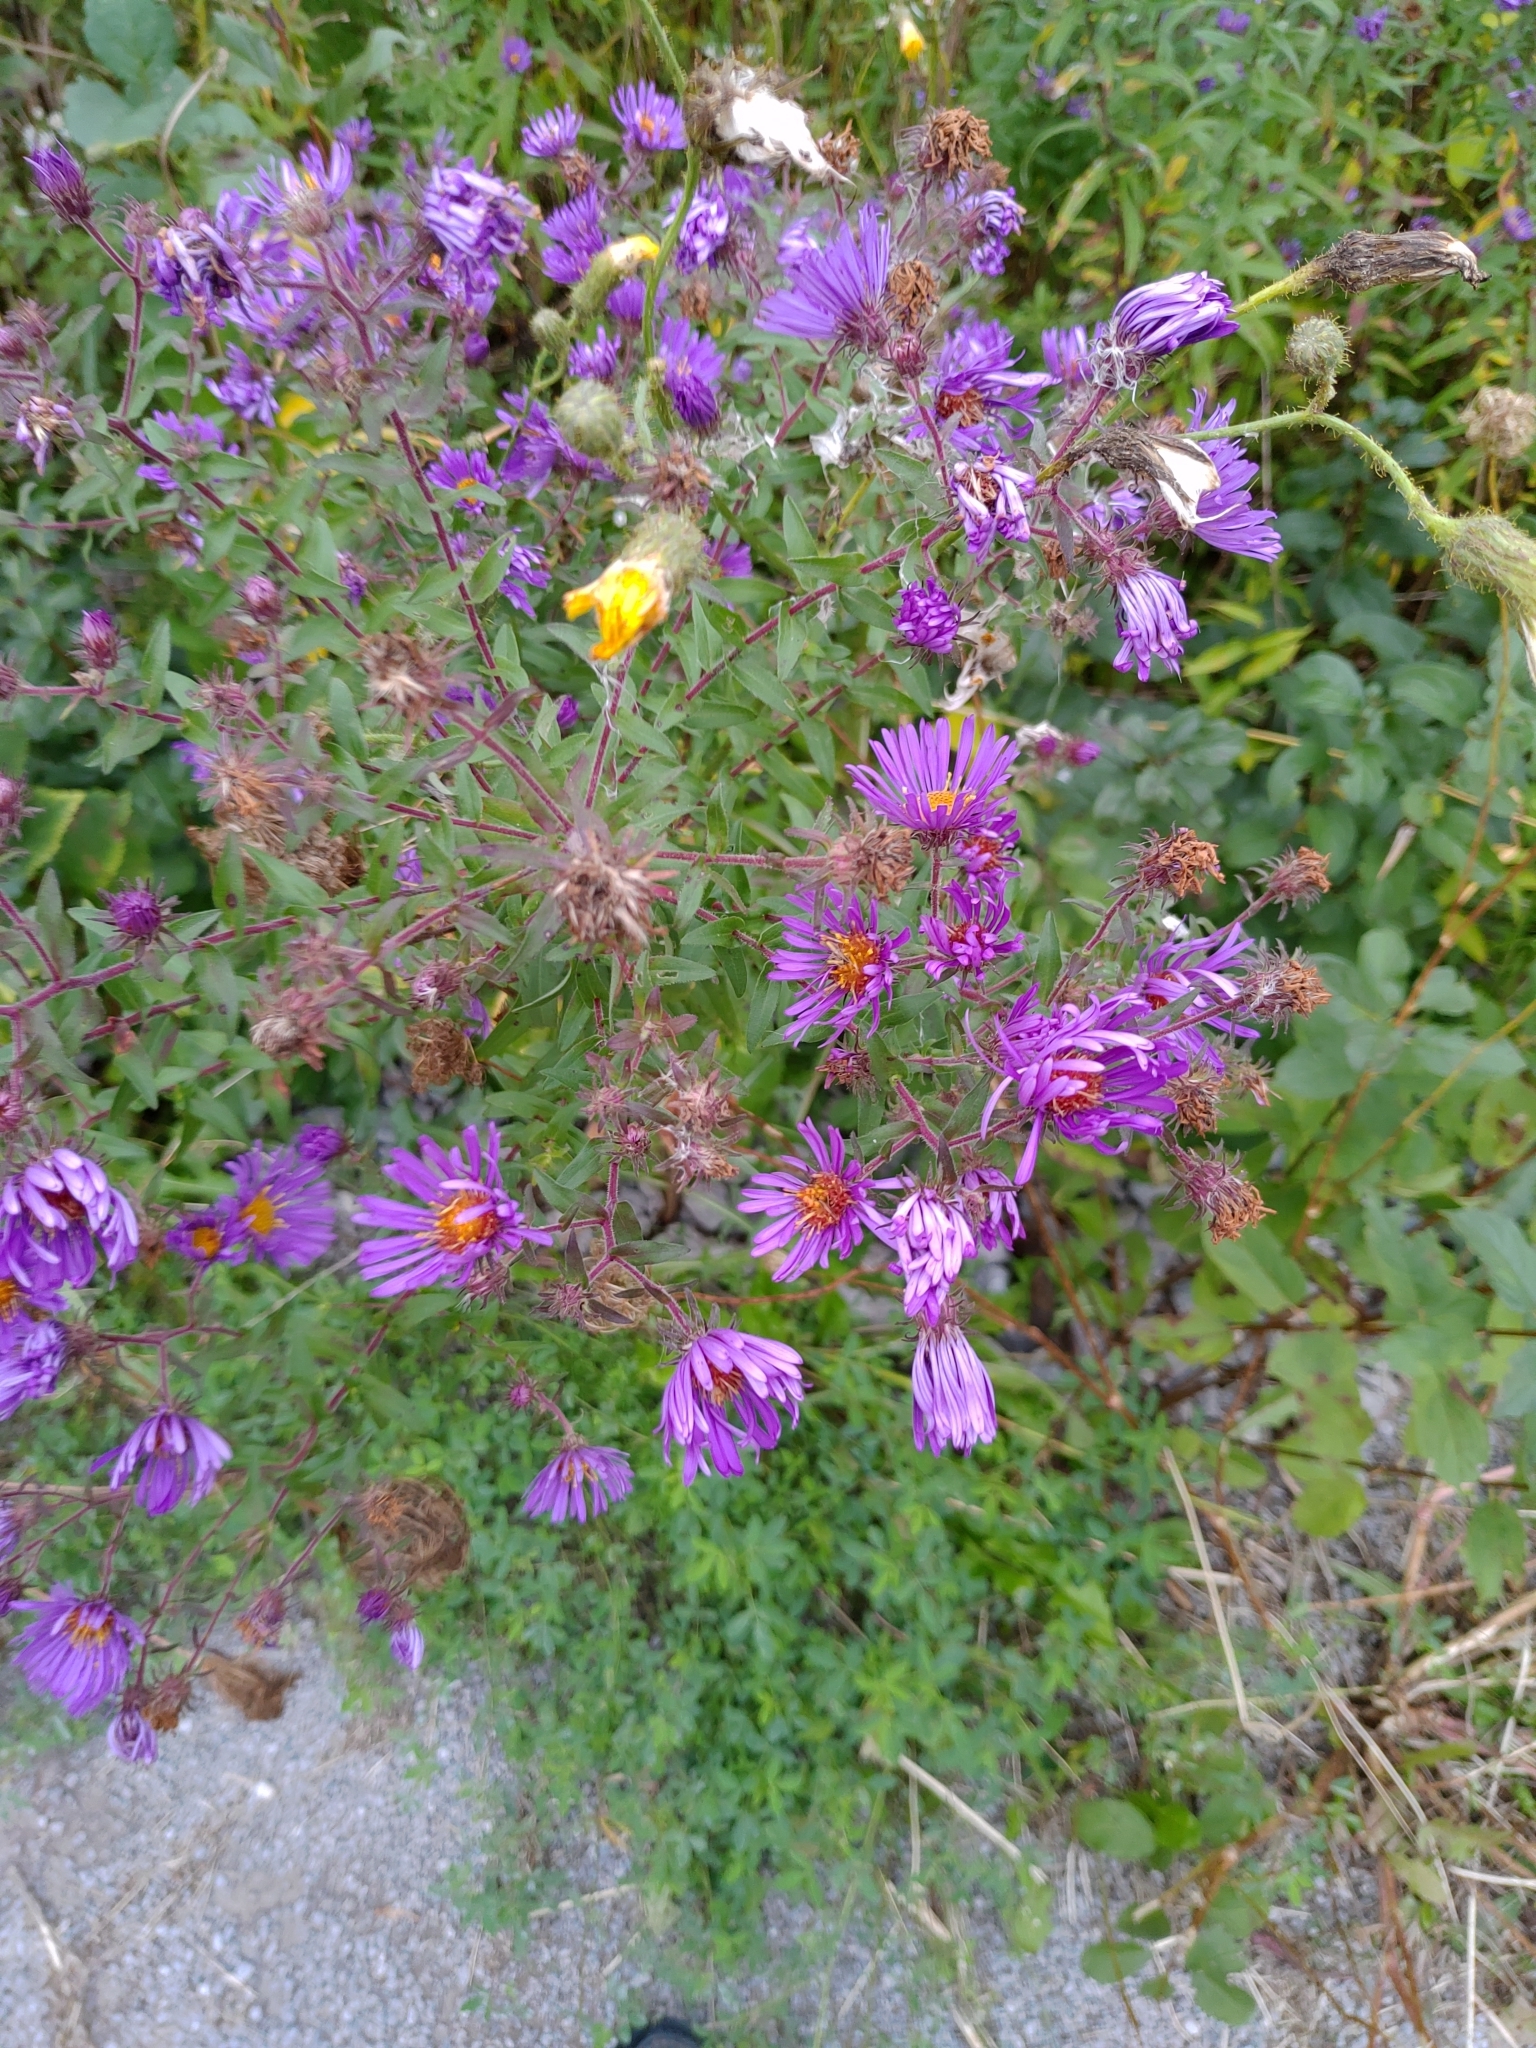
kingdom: Plantae
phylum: Tracheophyta
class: Magnoliopsida
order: Asterales
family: Asteraceae
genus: Symphyotrichum
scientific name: Symphyotrichum novae-angliae
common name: Michaelmas daisy
